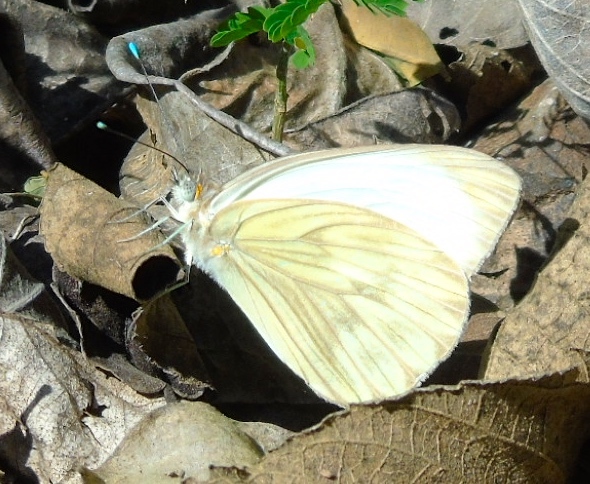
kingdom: Animalia
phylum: Arthropoda
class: Insecta
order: Lepidoptera
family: Pieridae
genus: Ascia
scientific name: Ascia monuste
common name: Great southern white
